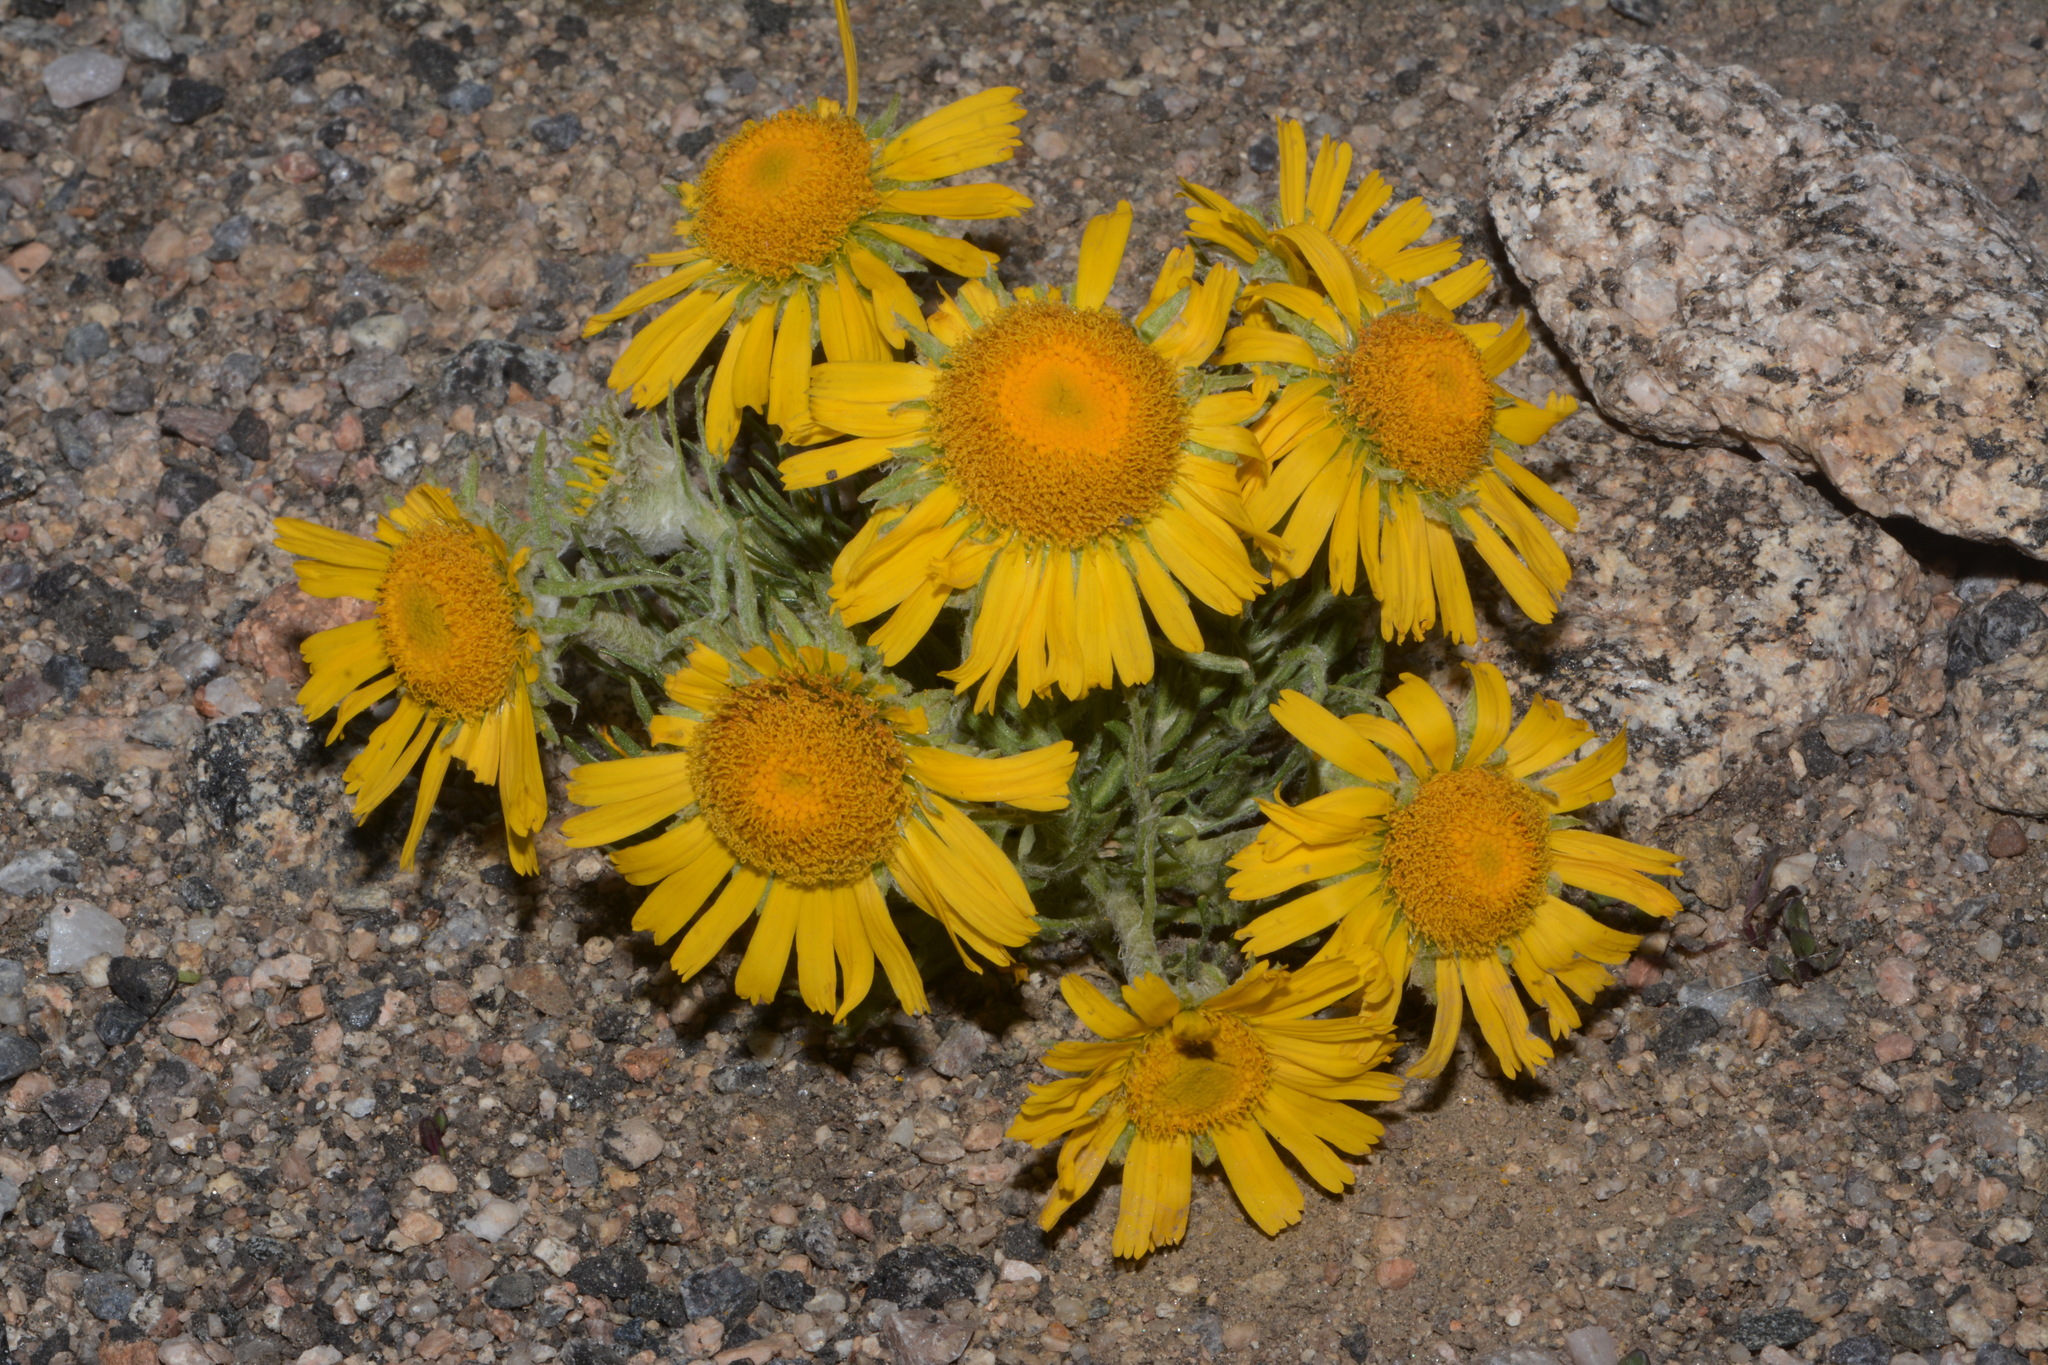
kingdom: Plantae
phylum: Tracheophyta
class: Magnoliopsida
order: Asterales
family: Asteraceae
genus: Hymenoxys
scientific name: Hymenoxys grandiflora
